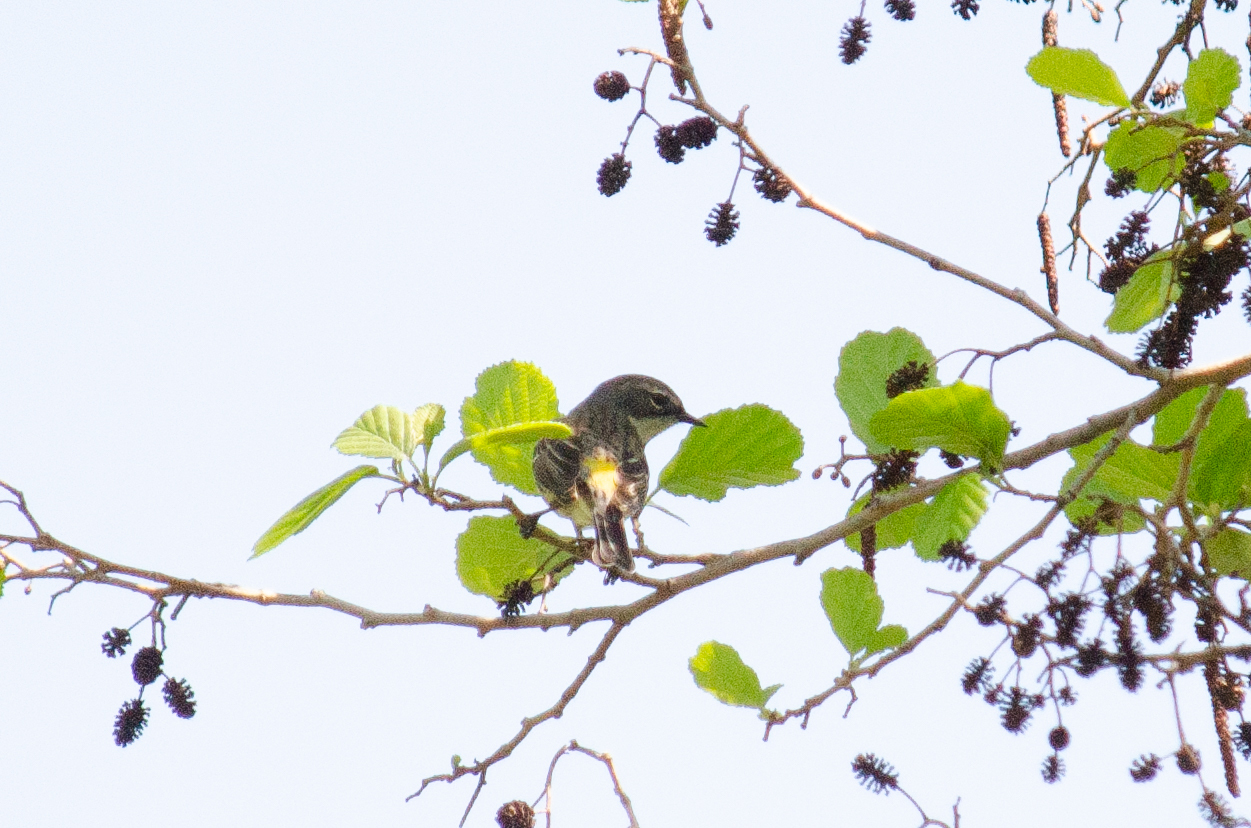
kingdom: Animalia
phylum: Chordata
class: Aves
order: Passeriformes
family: Parulidae
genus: Setophaga
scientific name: Setophaga coronata
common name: Myrtle warbler
